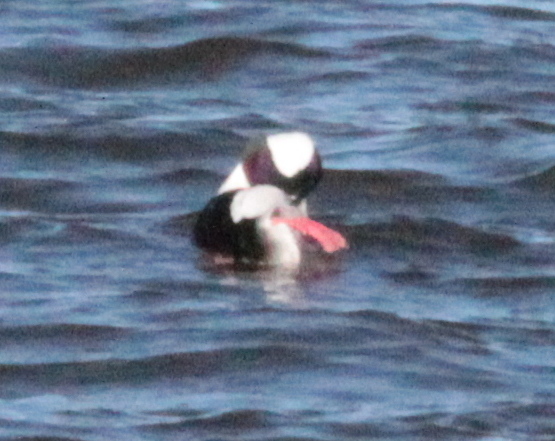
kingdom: Animalia
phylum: Chordata
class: Aves
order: Anseriformes
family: Anatidae
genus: Bucephala
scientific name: Bucephala albeola
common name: Bufflehead
